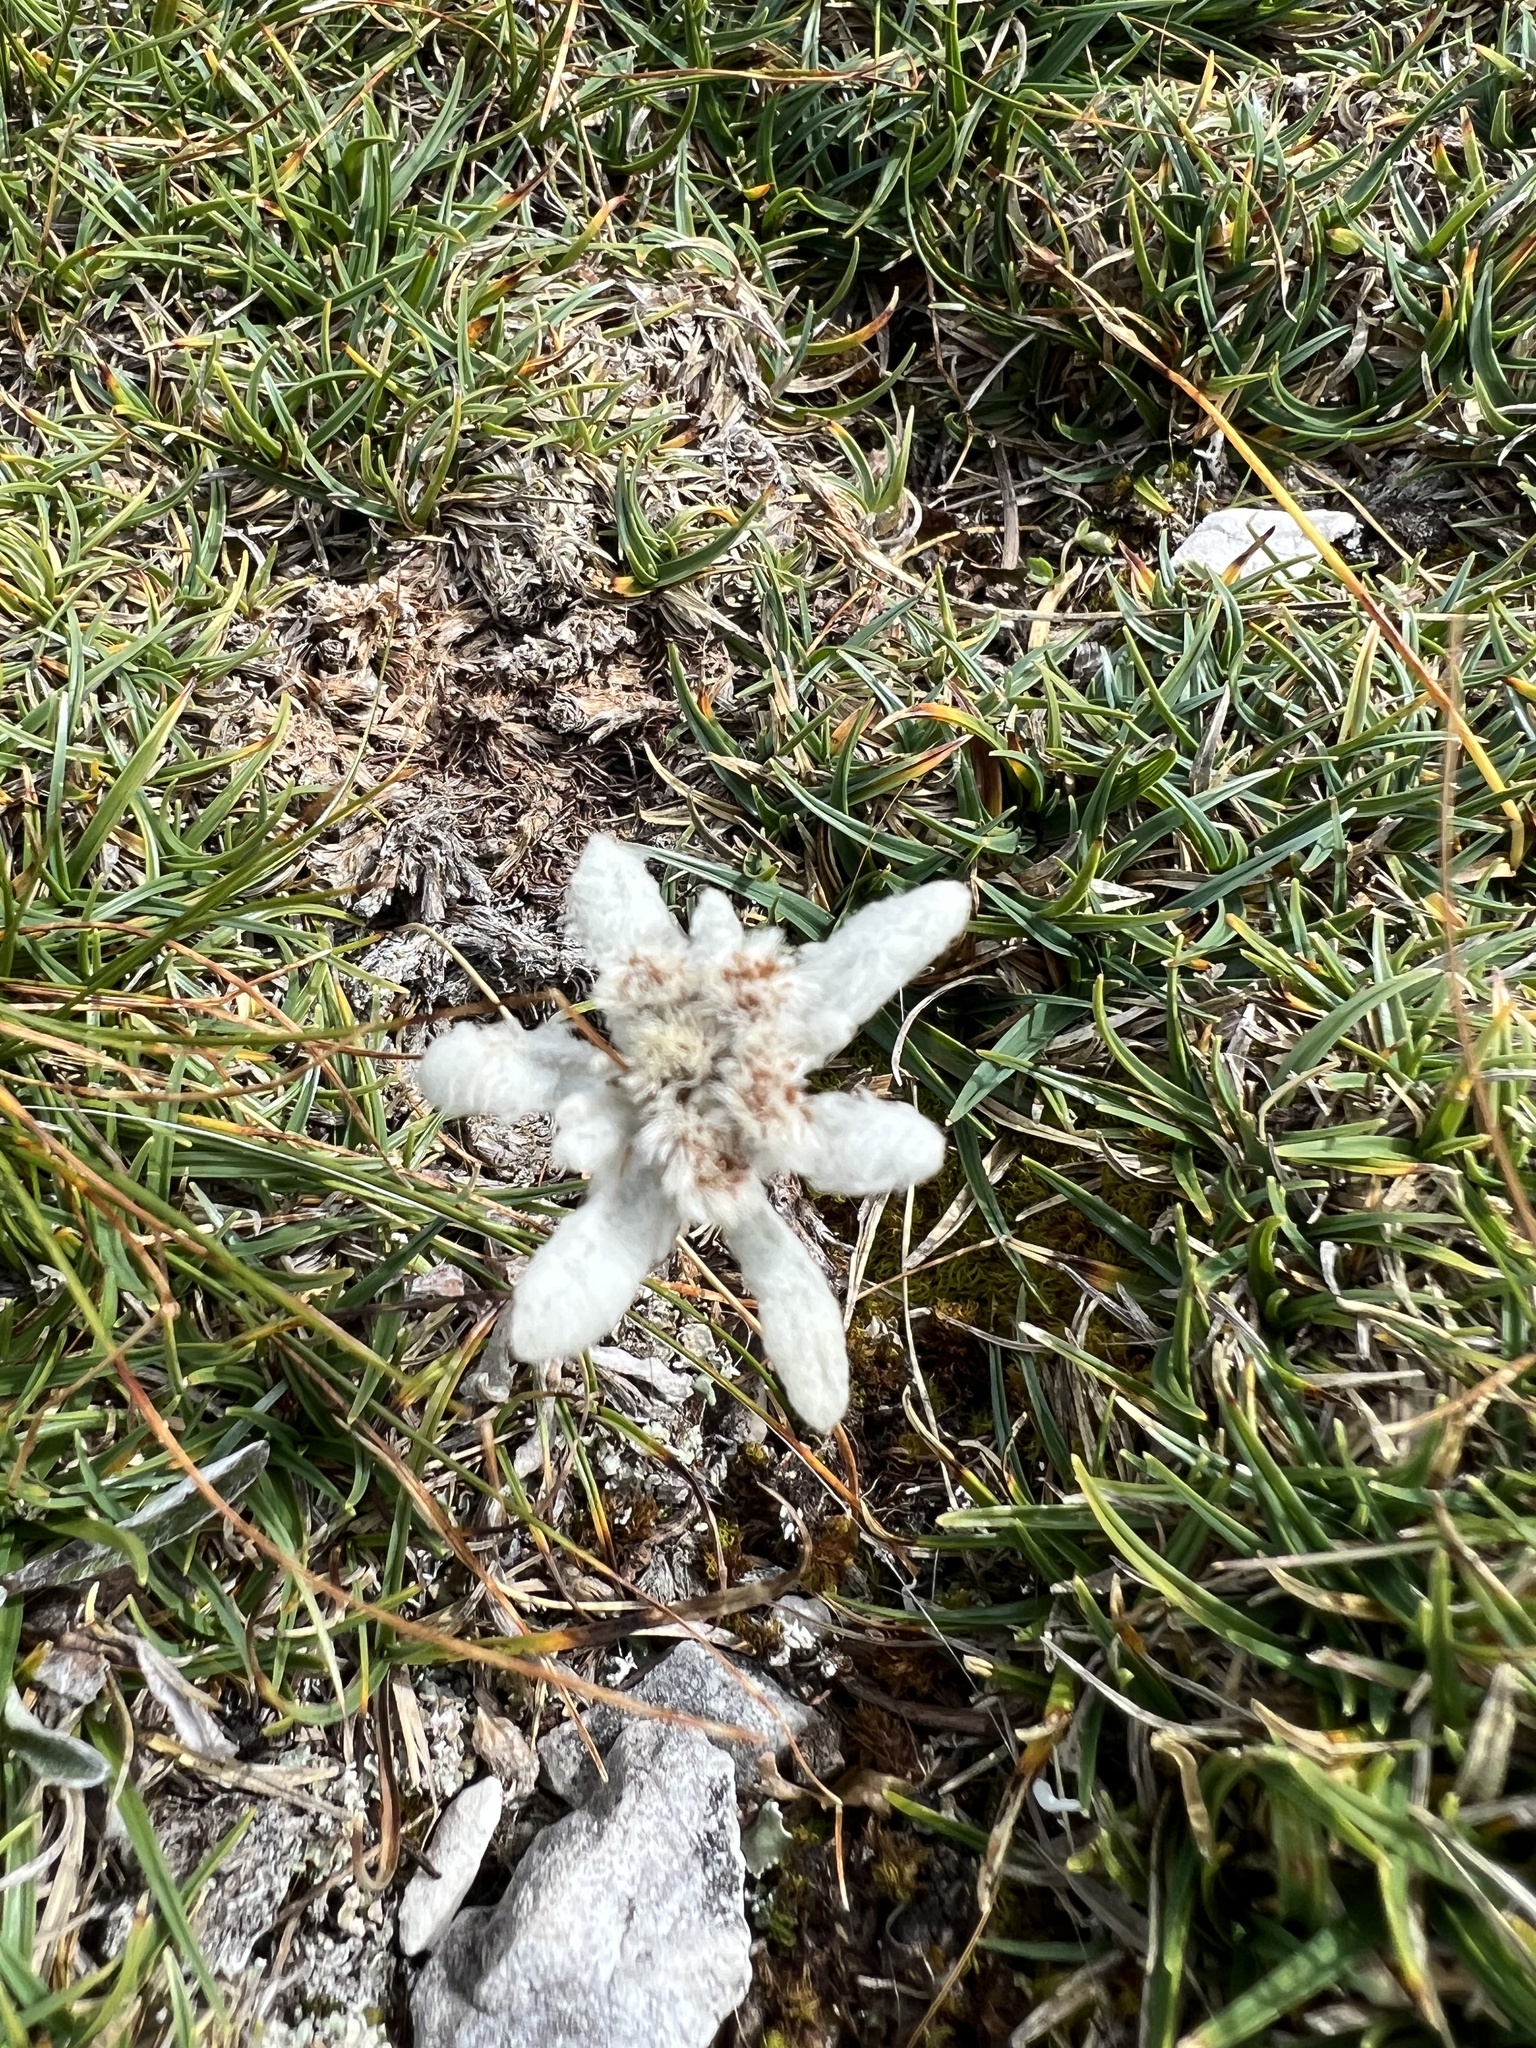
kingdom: Plantae
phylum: Tracheophyta
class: Magnoliopsida
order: Asterales
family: Asteraceae
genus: Leontopodium
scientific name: Leontopodium nivale
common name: Edelweiss
